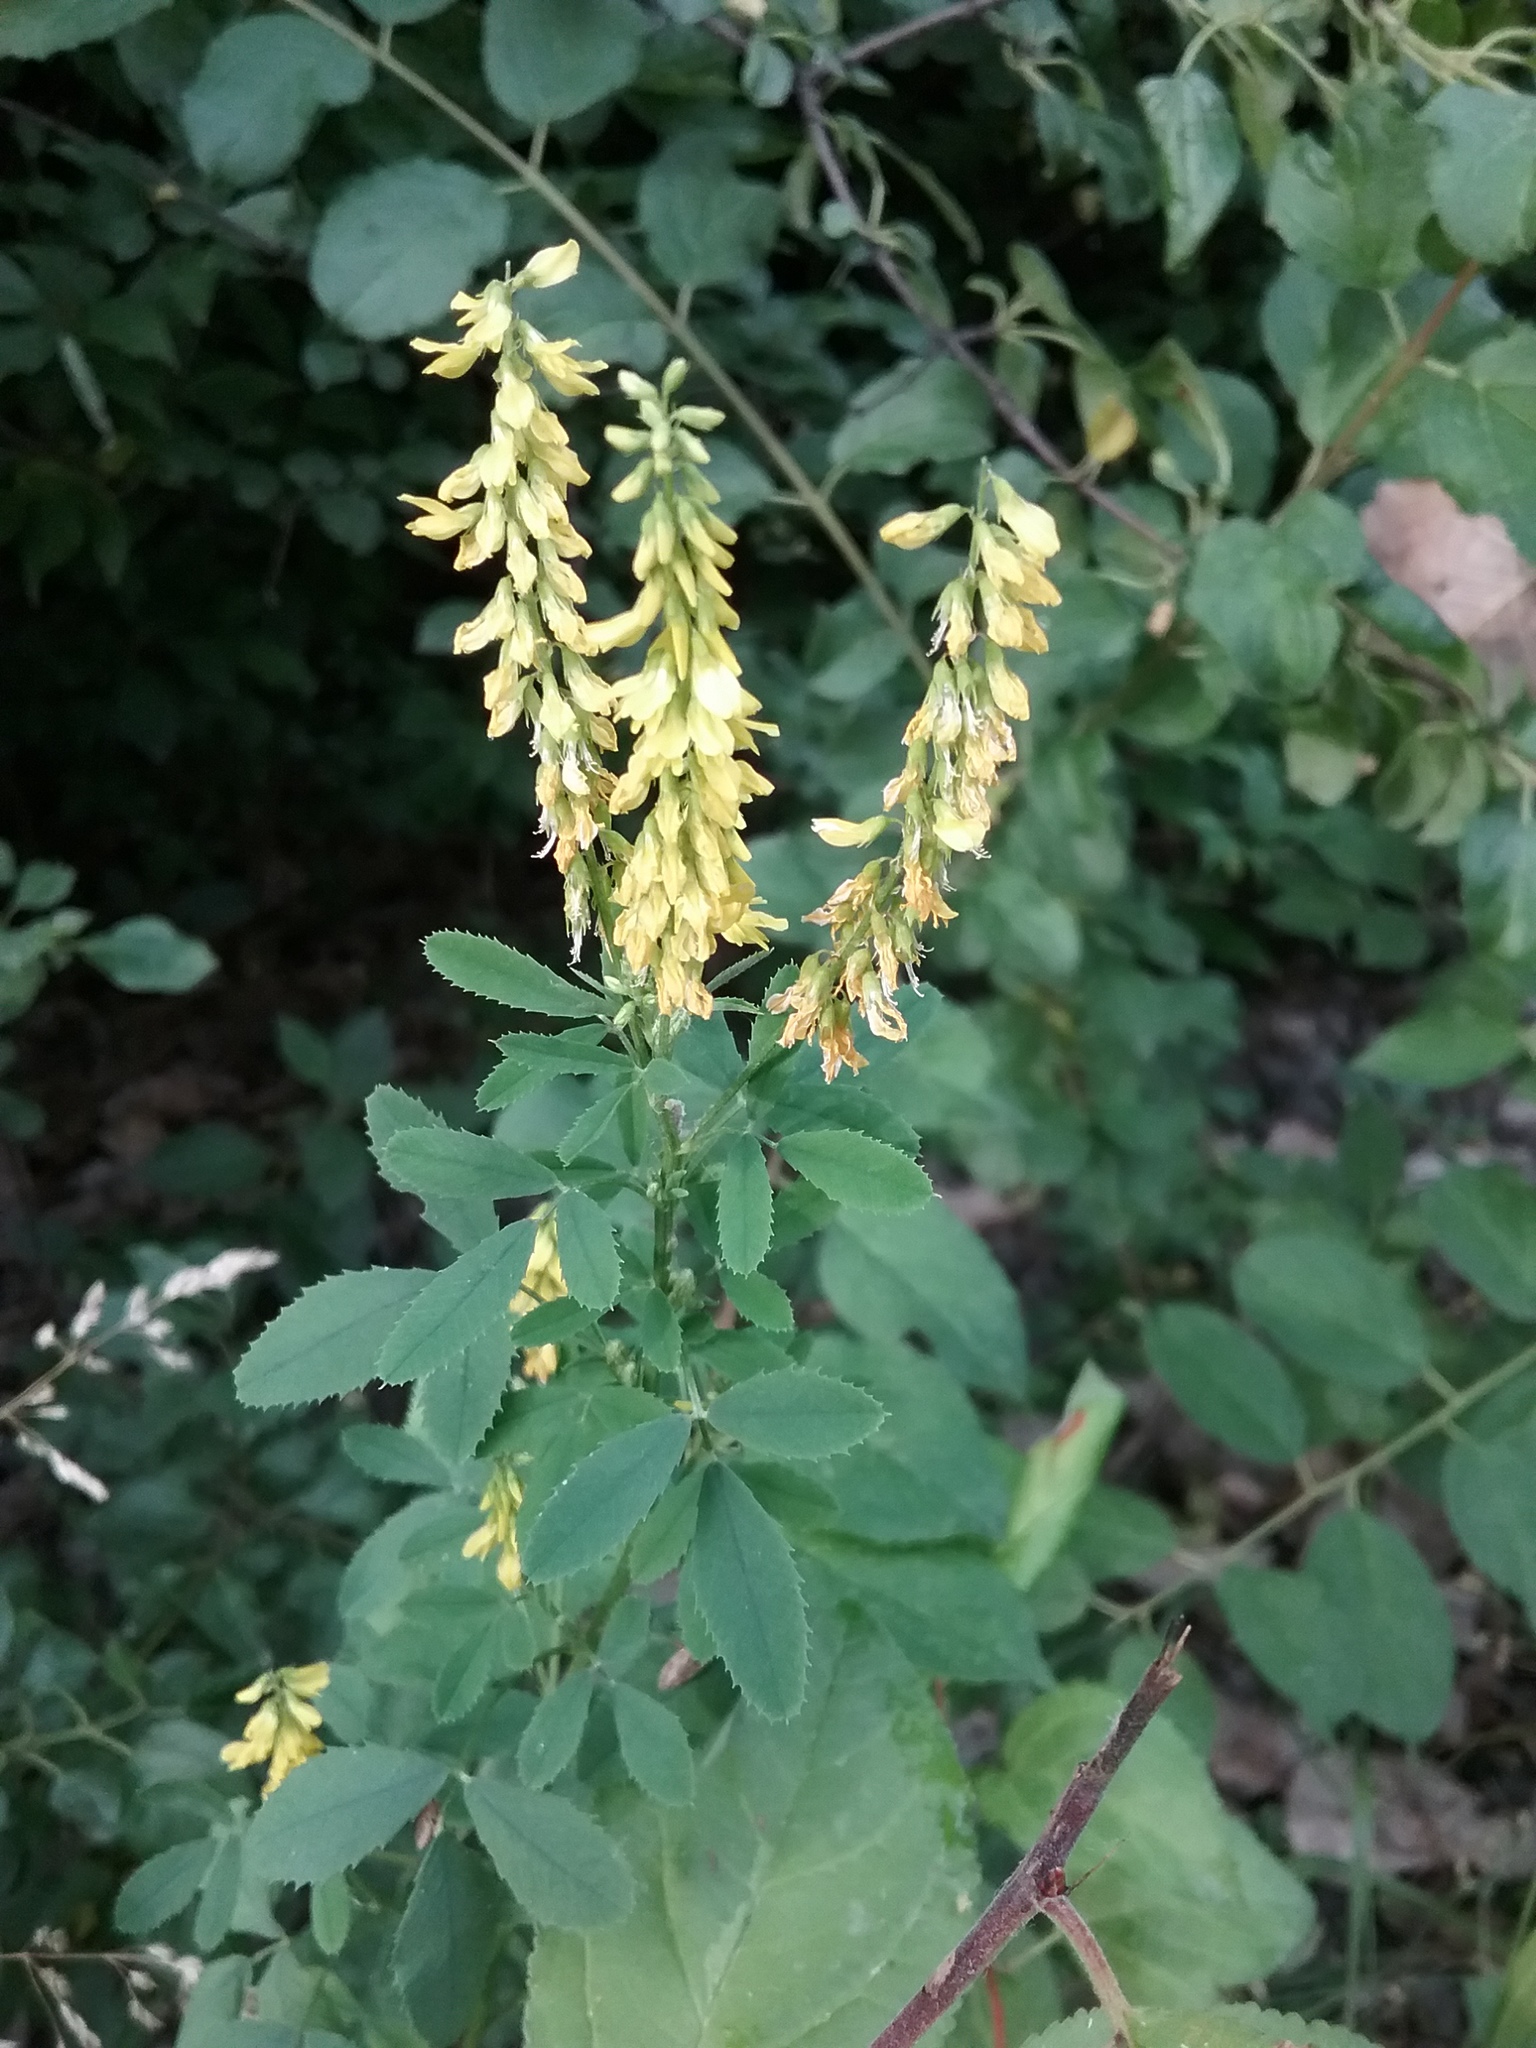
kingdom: Plantae
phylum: Tracheophyta
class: Magnoliopsida
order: Fabales
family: Fabaceae
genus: Melilotus
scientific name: Melilotus officinalis
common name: Sweetclover
